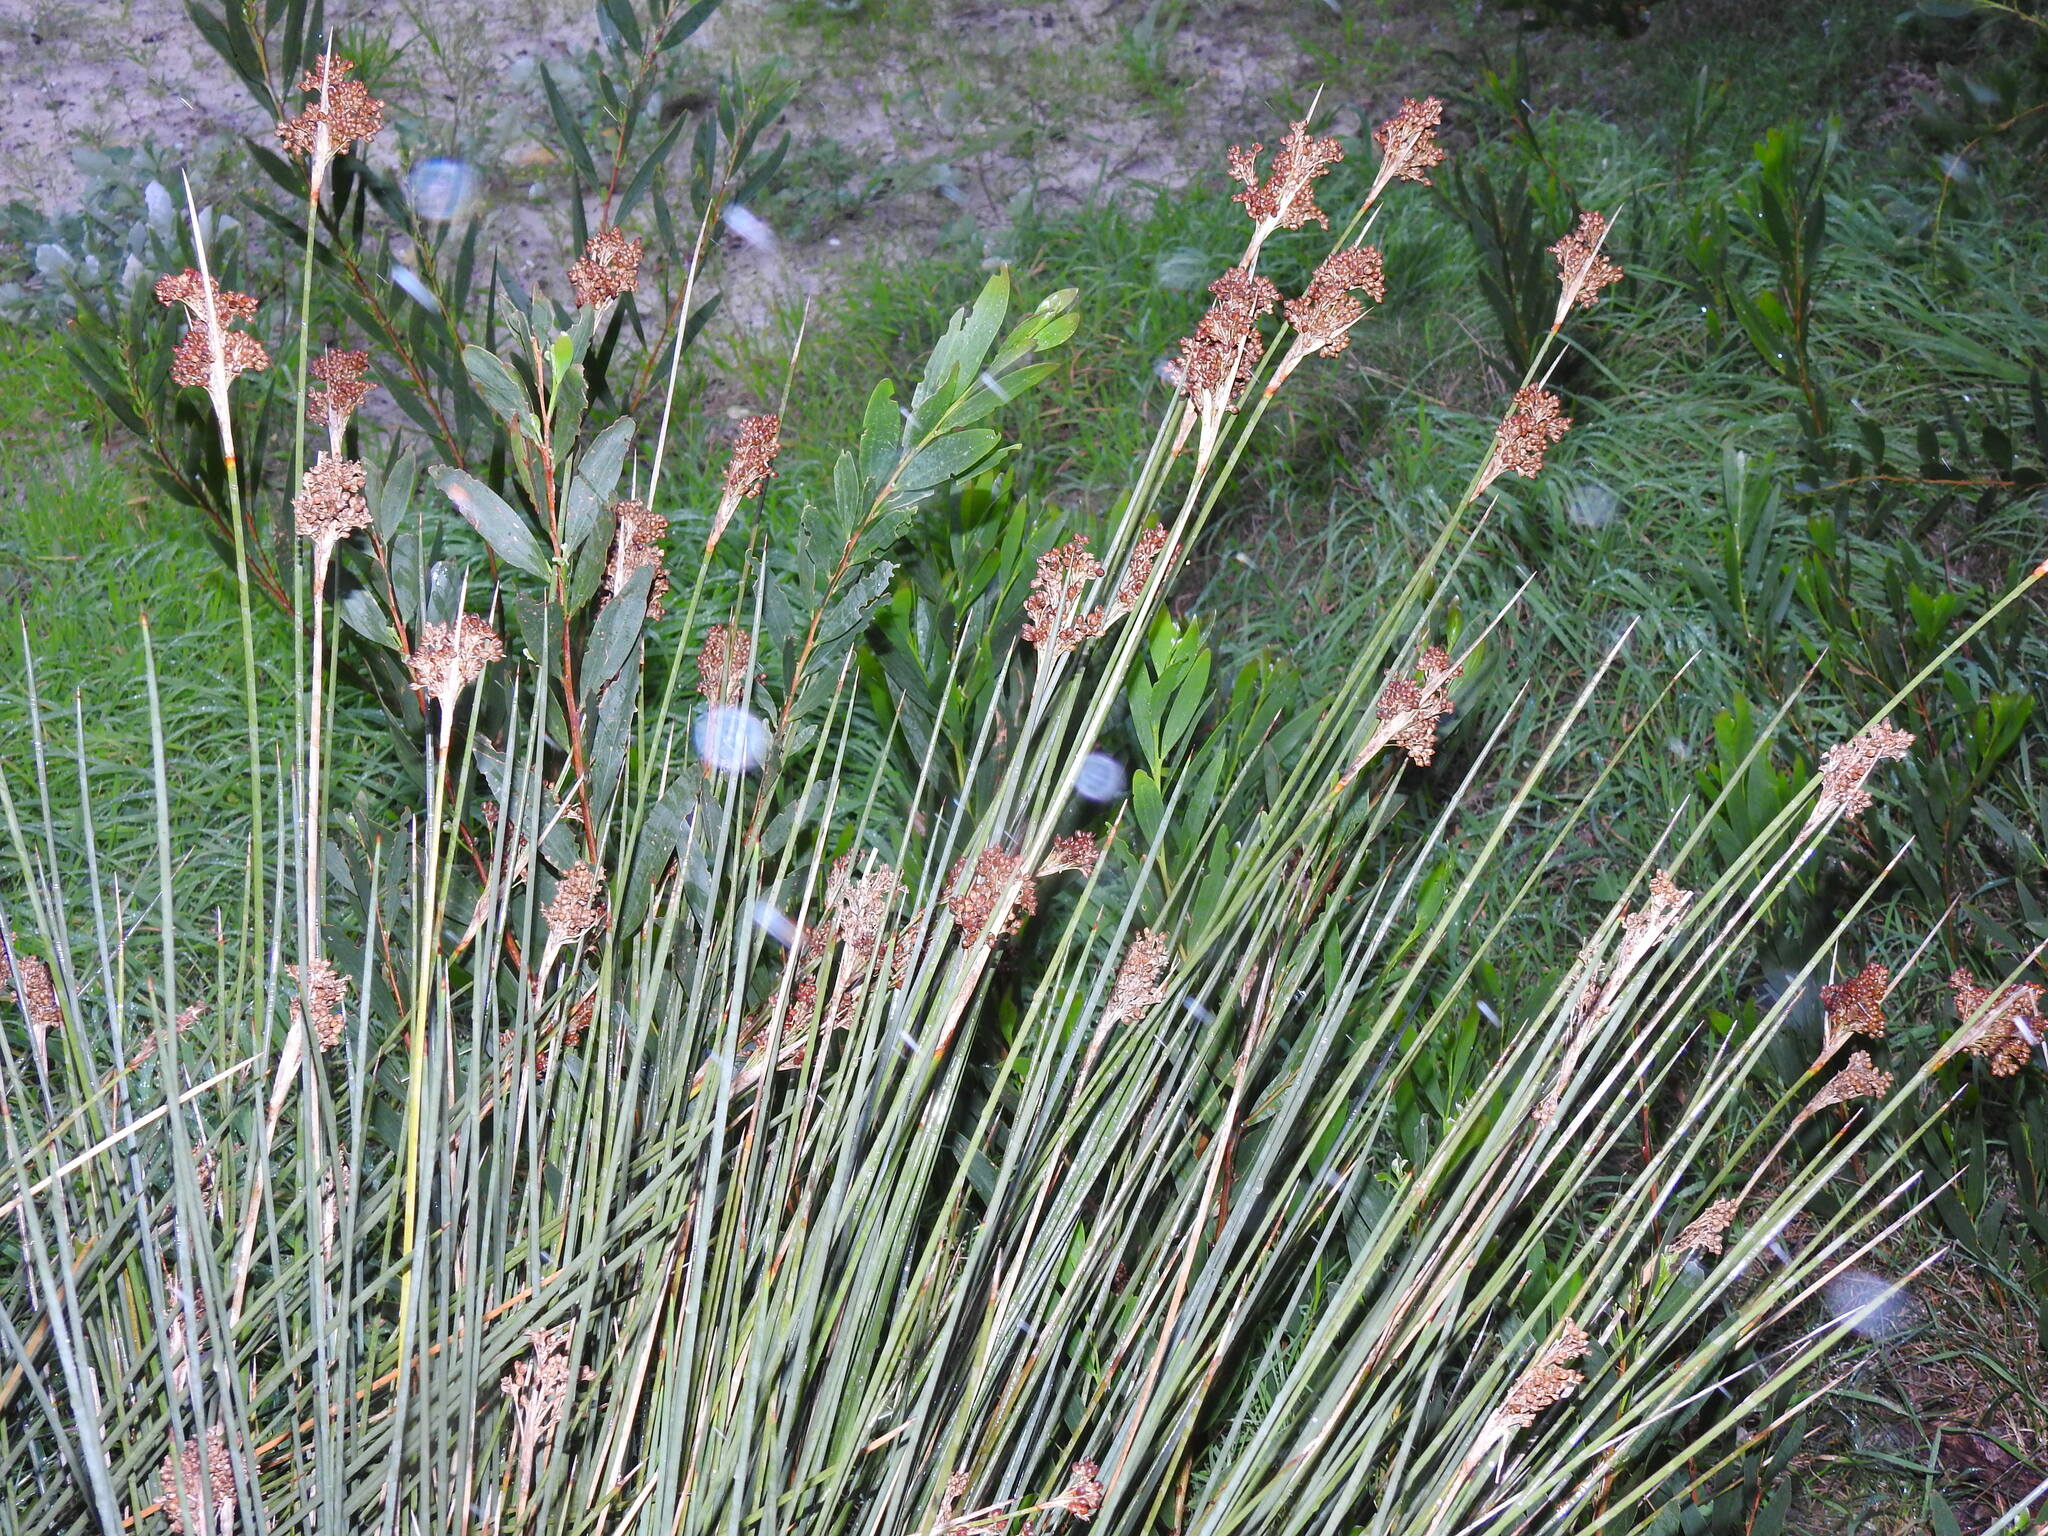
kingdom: Plantae
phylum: Tracheophyta
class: Liliopsida
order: Poales
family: Juncaceae
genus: Juncus
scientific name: Juncus acutus
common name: Sharp rush
